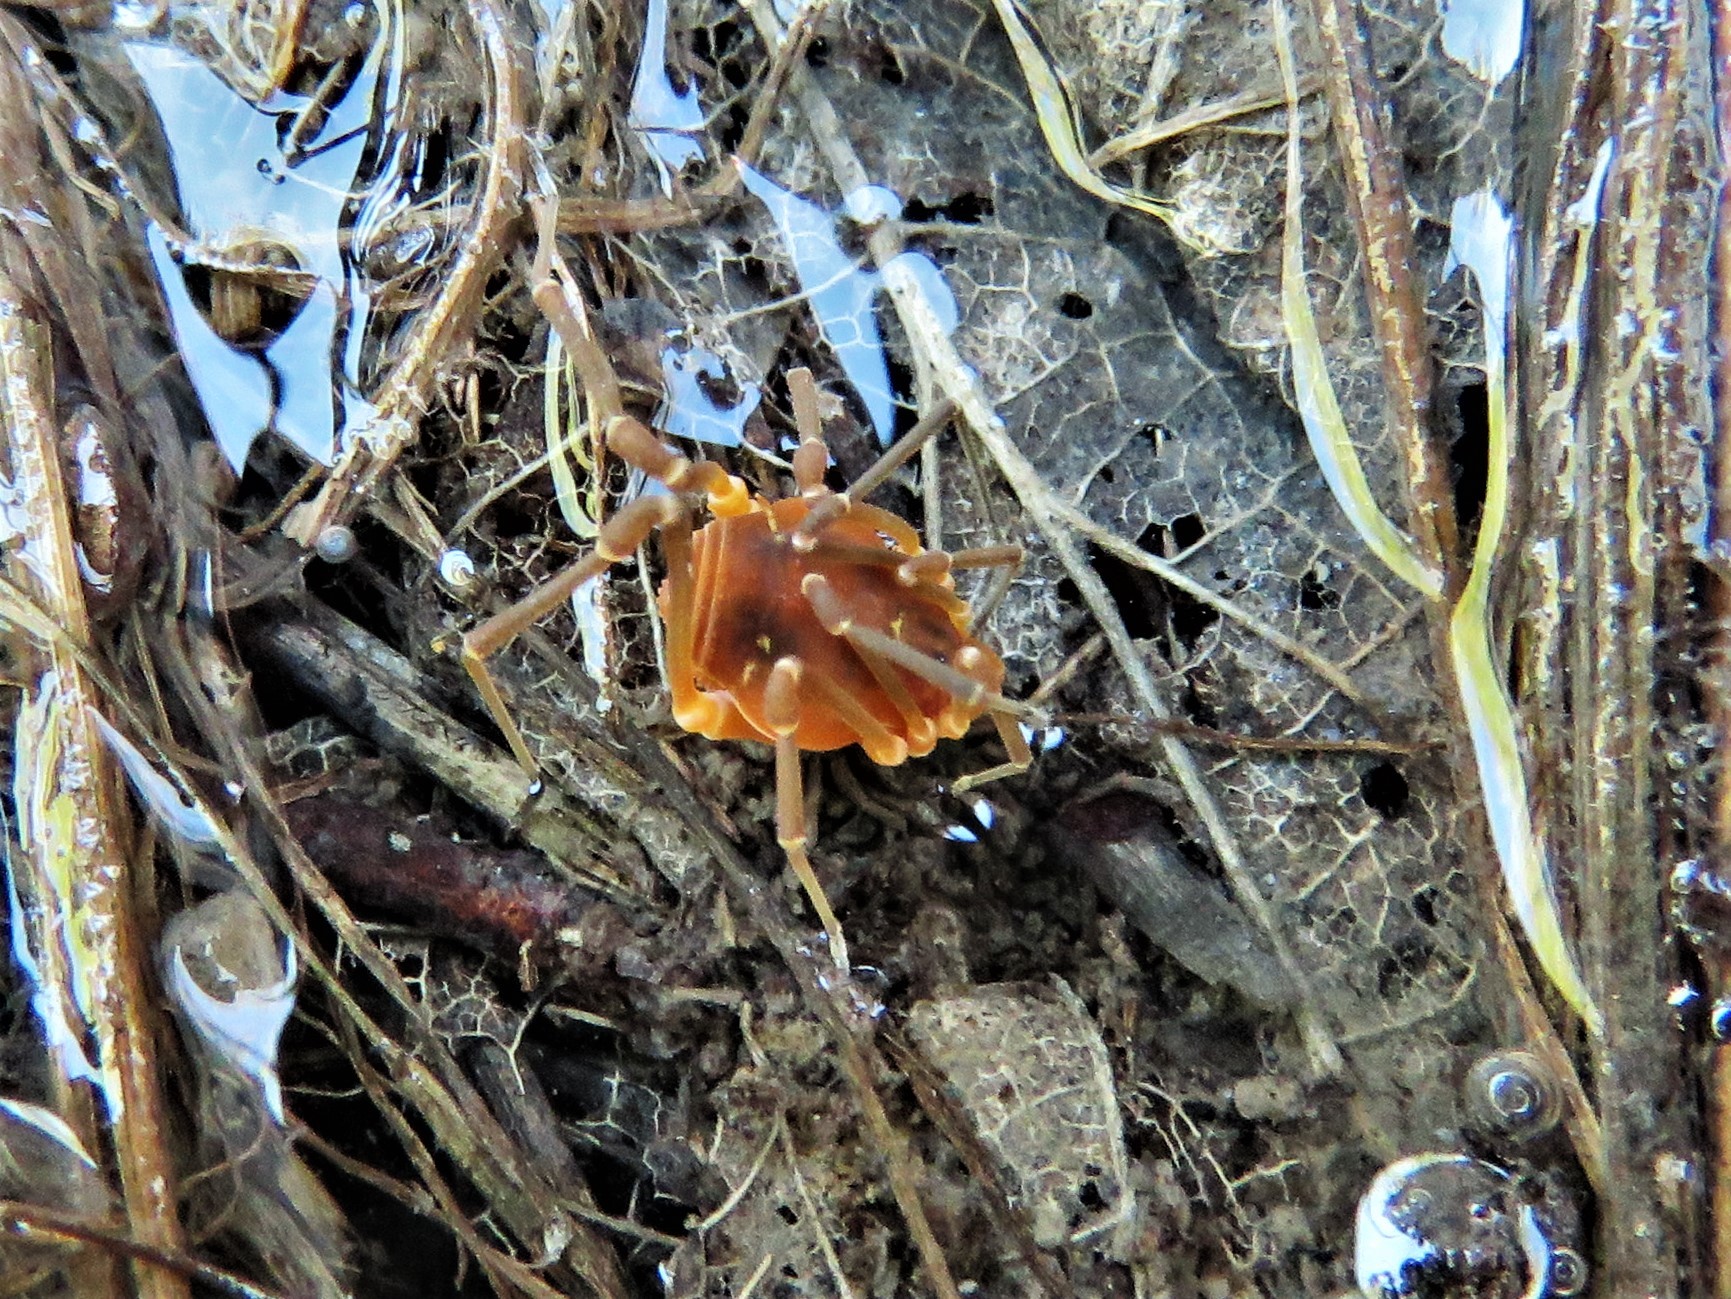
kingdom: Animalia
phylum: Arthropoda
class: Arachnida
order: Opiliones
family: Cosmetidae
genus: Libitioides
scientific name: Libitioides sayi
